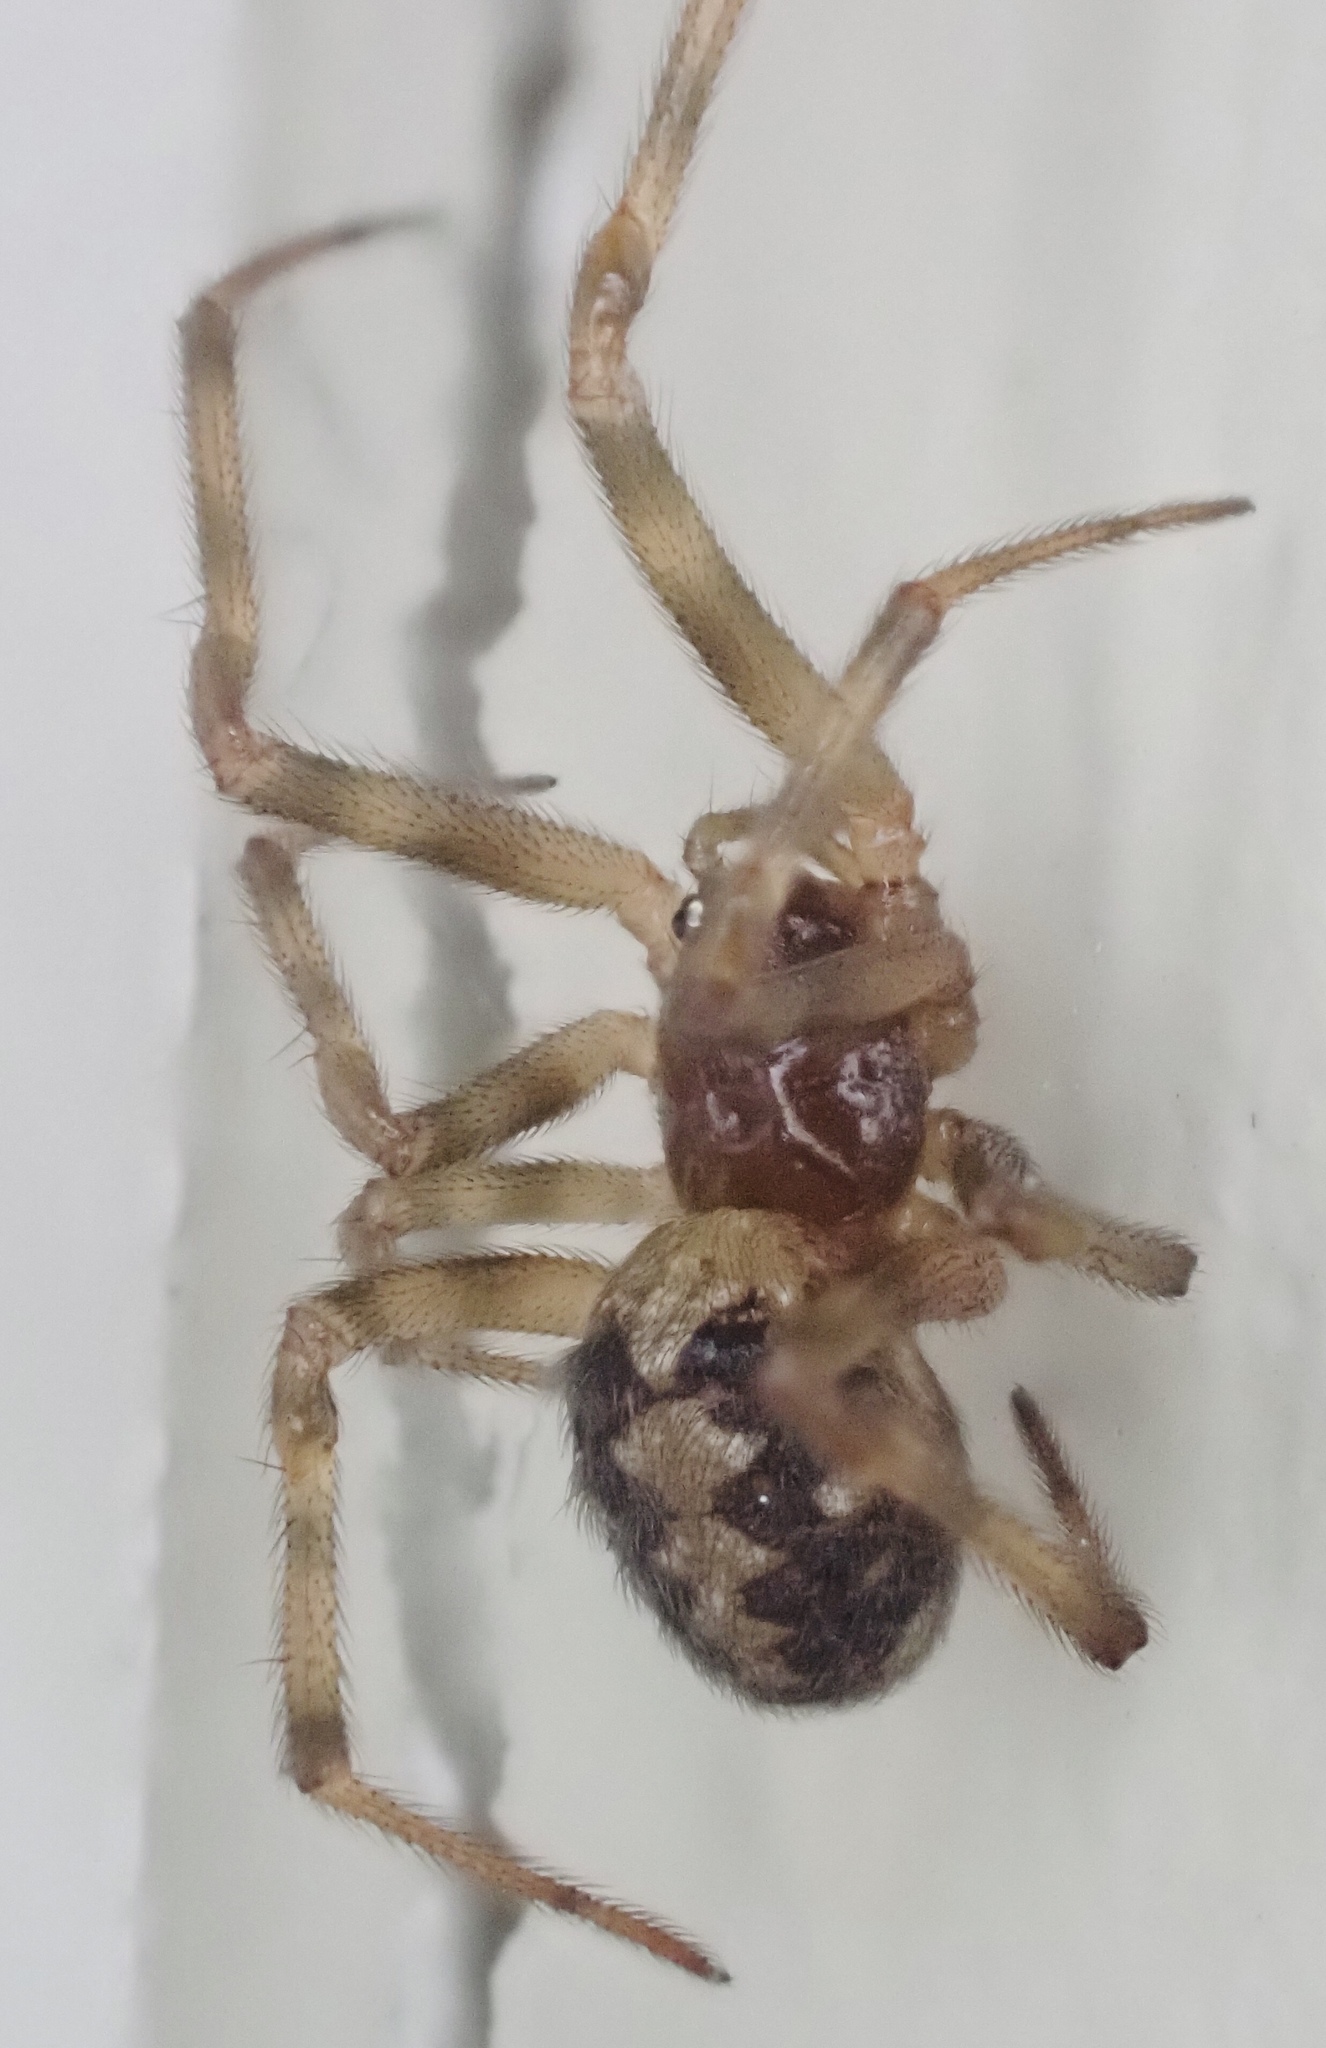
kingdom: Animalia
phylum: Arthropoda
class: Arachnida
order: Araneae
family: Theridiidae
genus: Steatoda
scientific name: Steatoda triangulosa
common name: Triangulate bud spider
